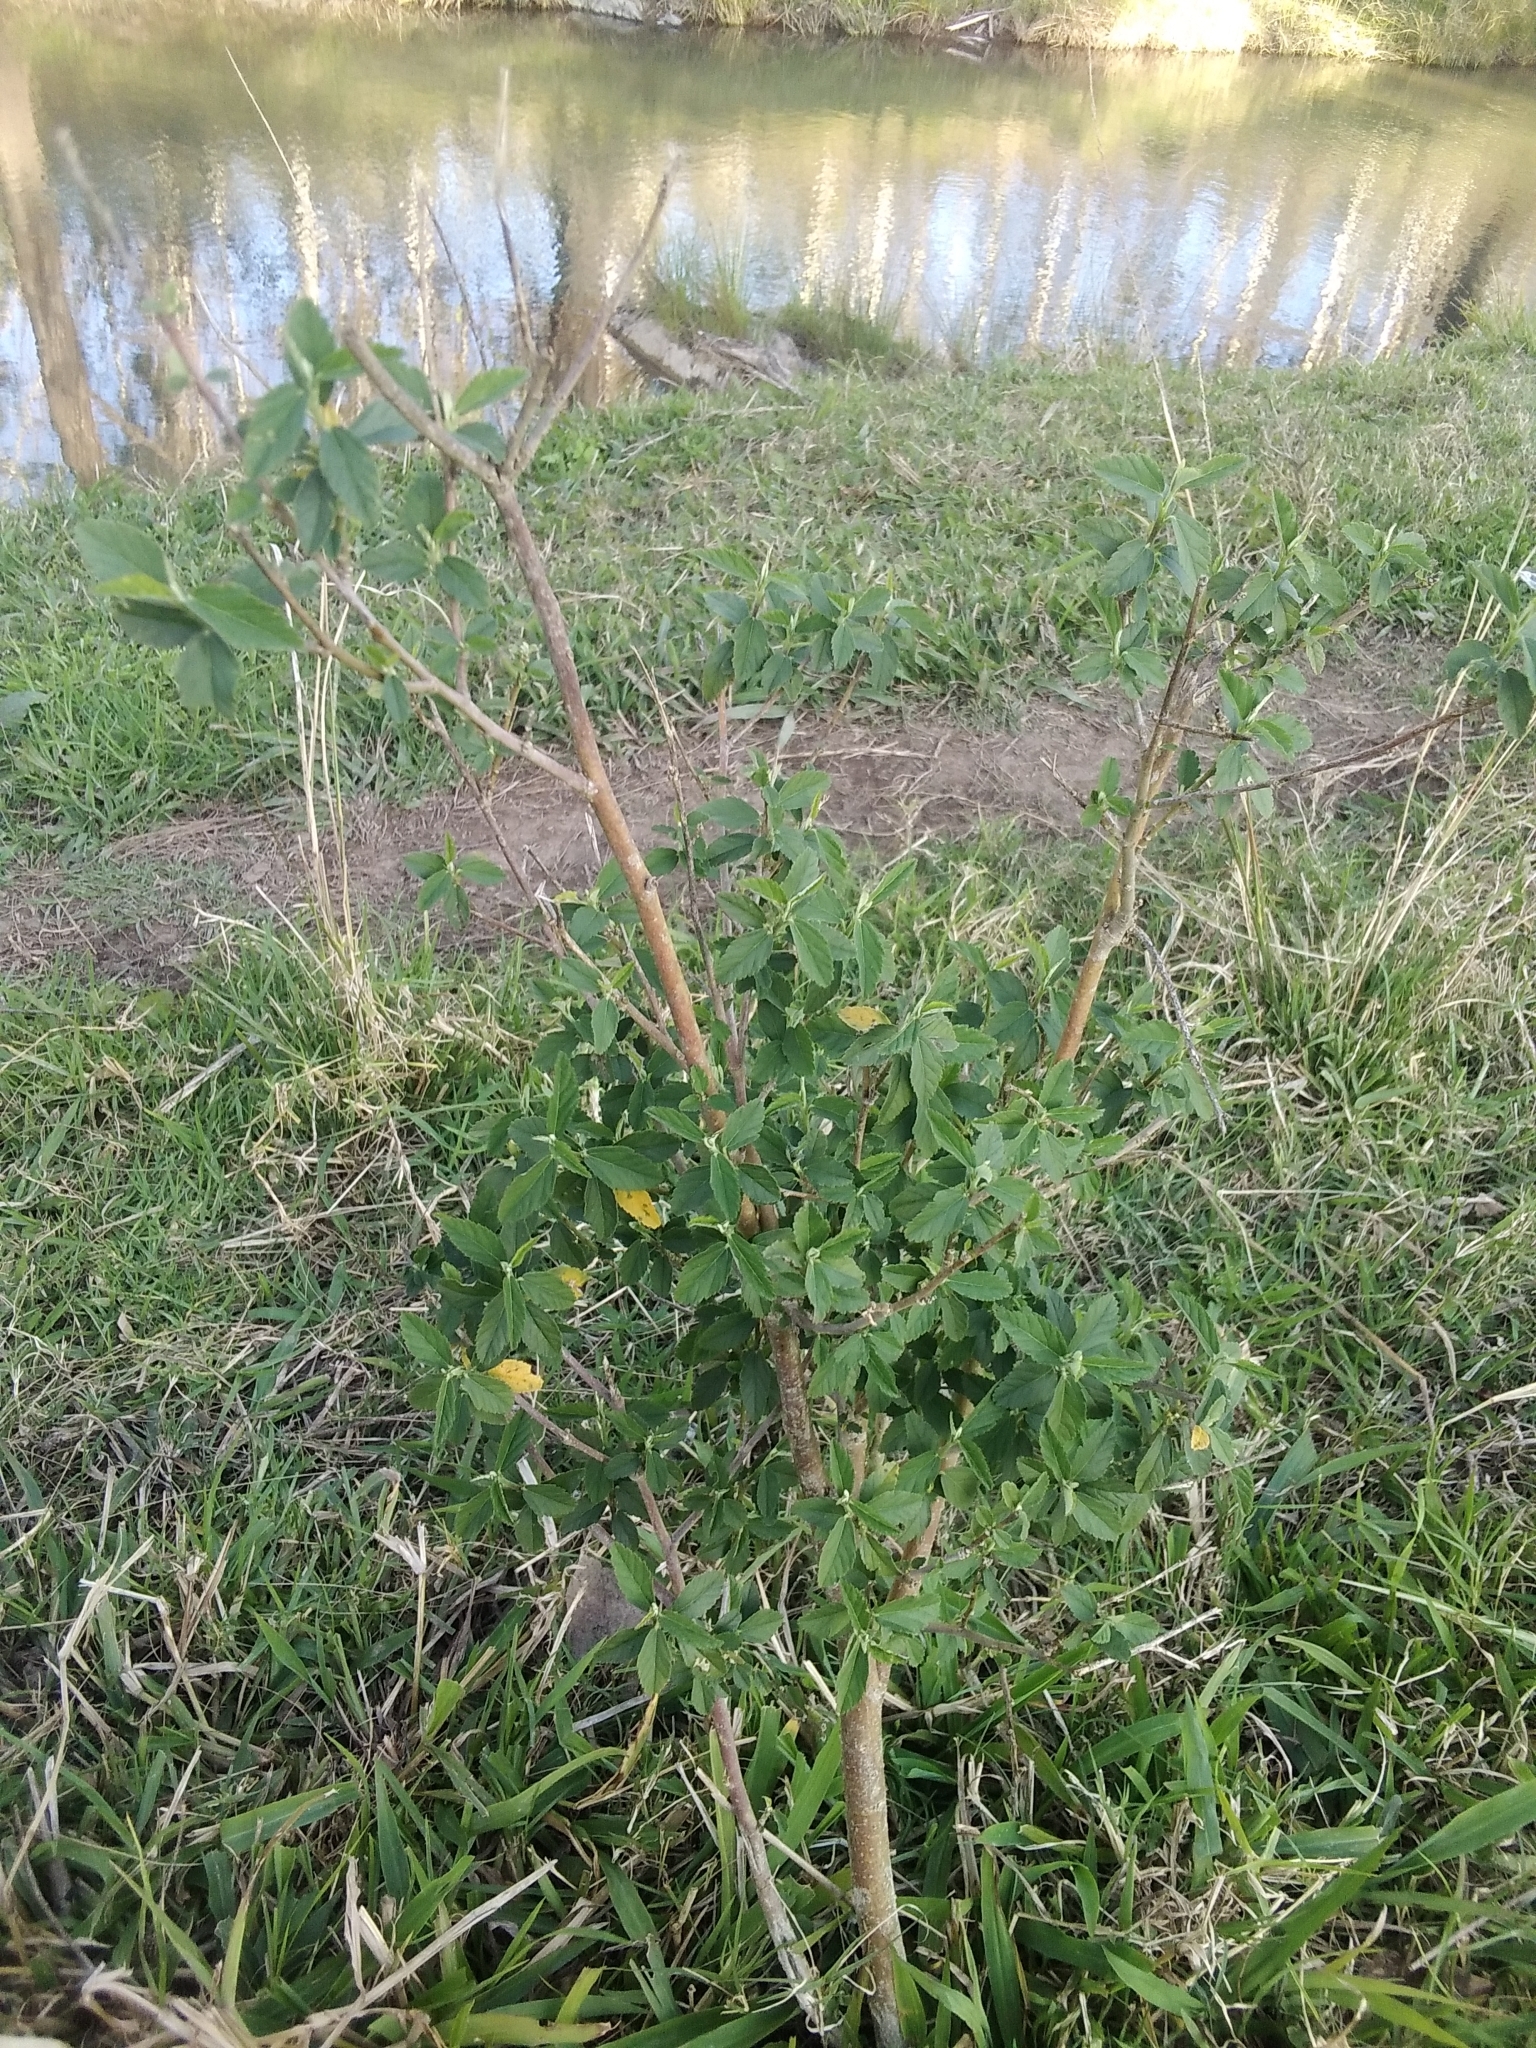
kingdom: Plantae
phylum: Tracheophyta
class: Magnoliopsida
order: Malvales
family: Malvaceae
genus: Sida
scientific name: Sida rhombifolia
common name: Queensland-hemp
